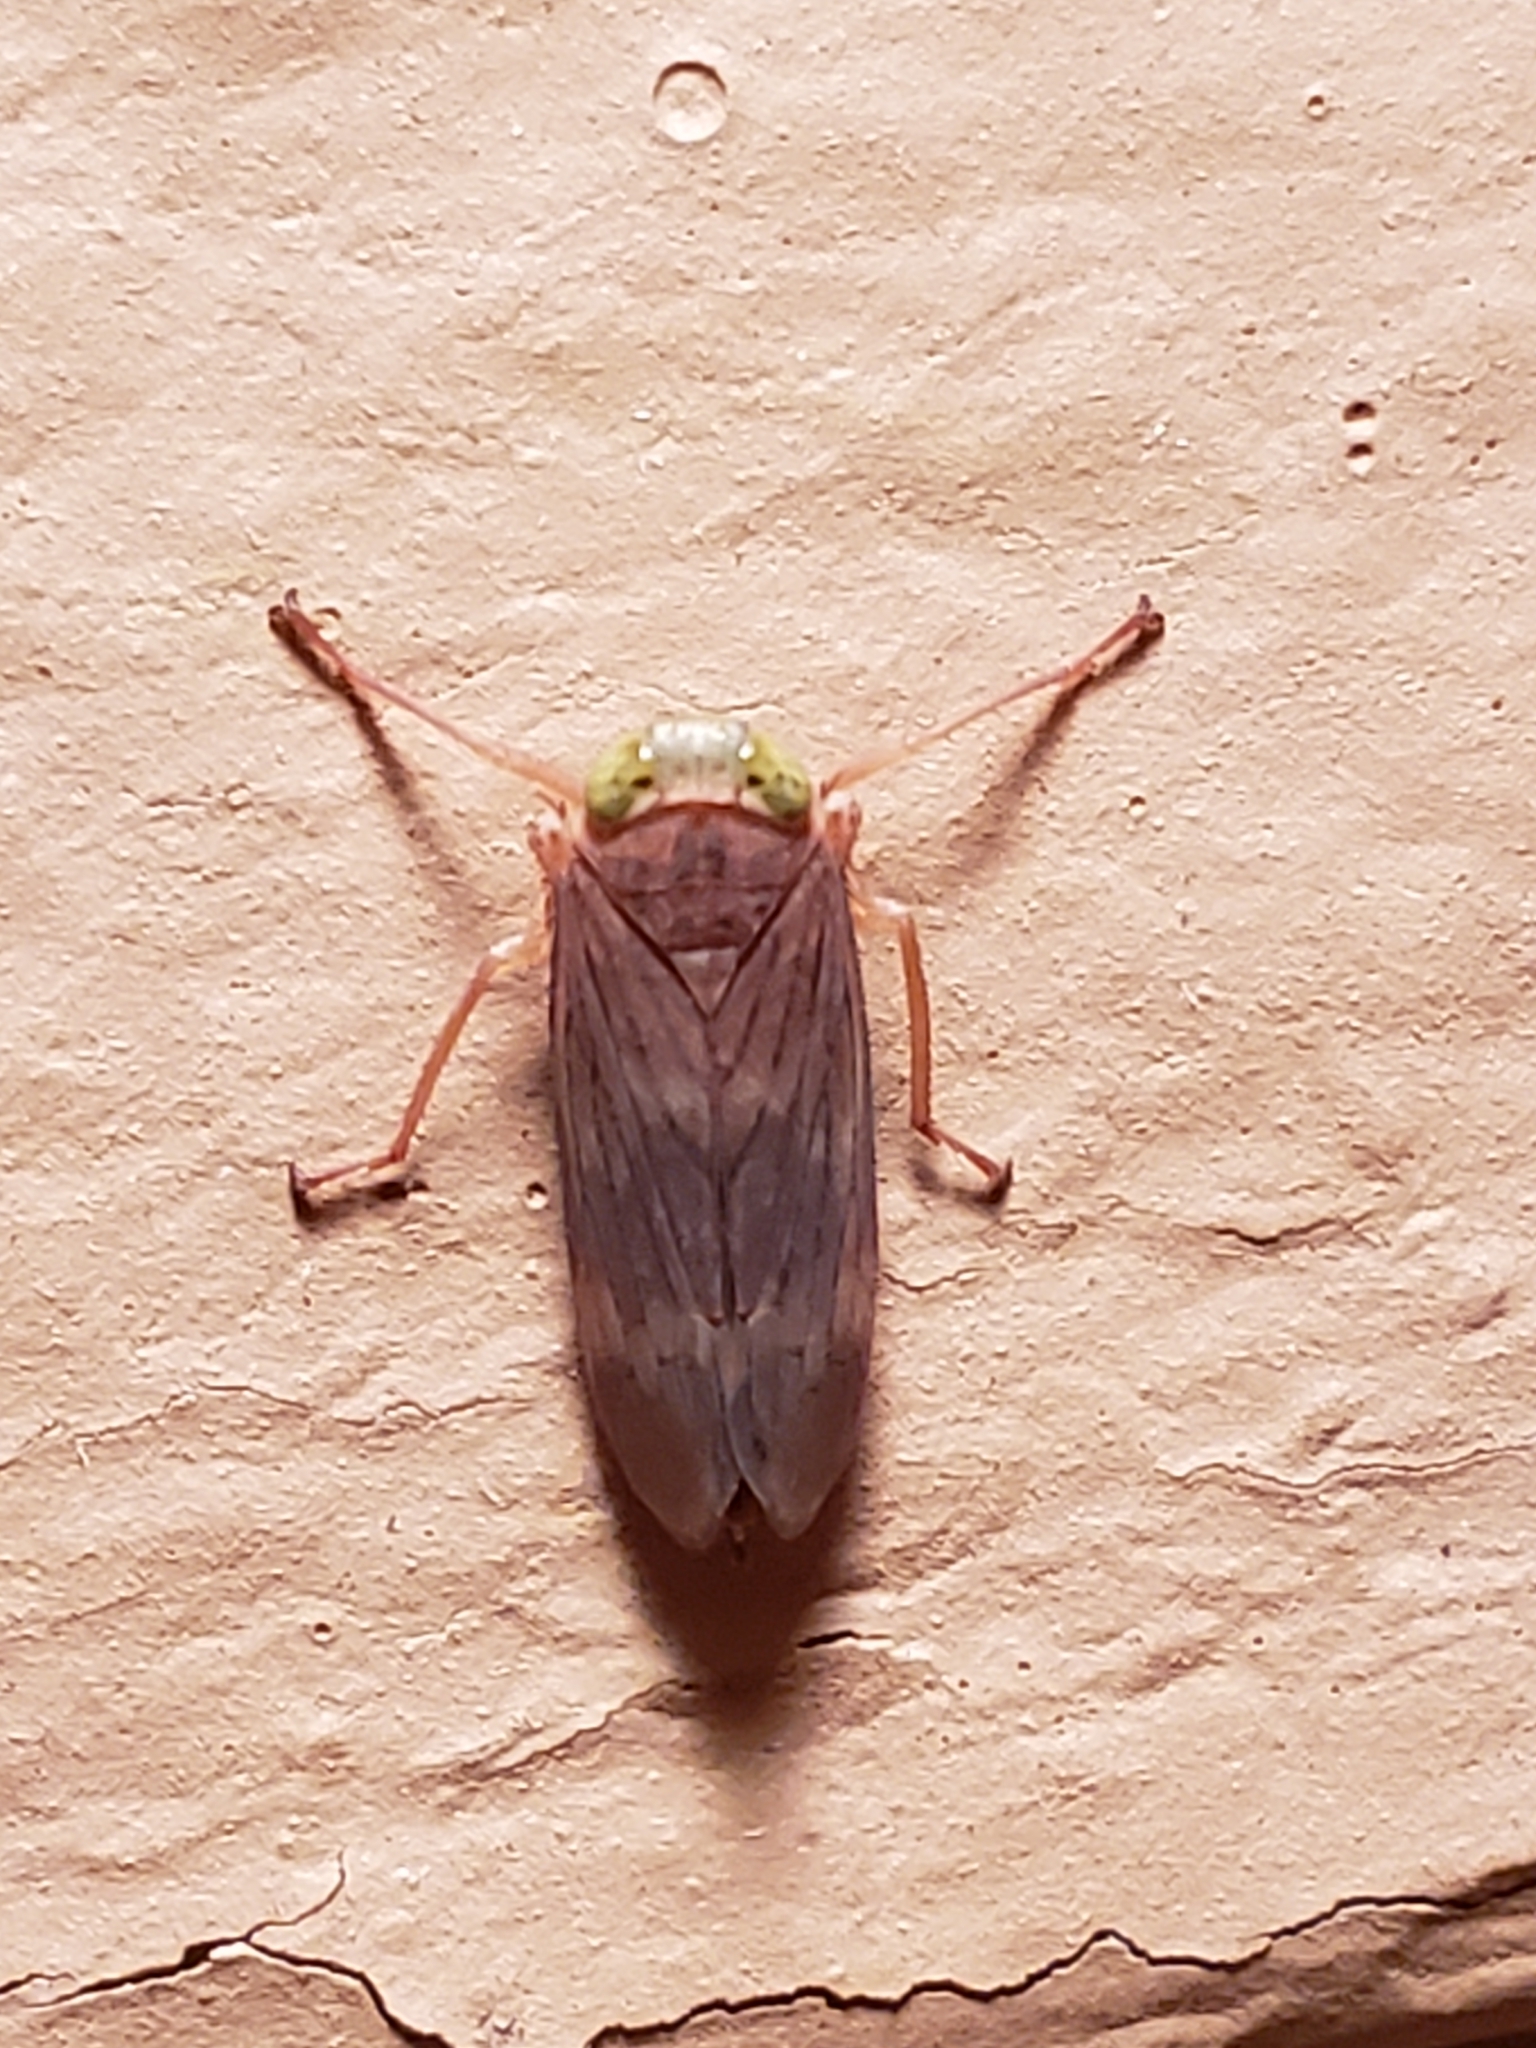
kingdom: Animalia
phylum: Arthropoda
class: Insecta
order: Hemiptera
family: Cicadellidae
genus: Jikradia
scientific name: Jikradia olitoria
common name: Coppery leafhopper
